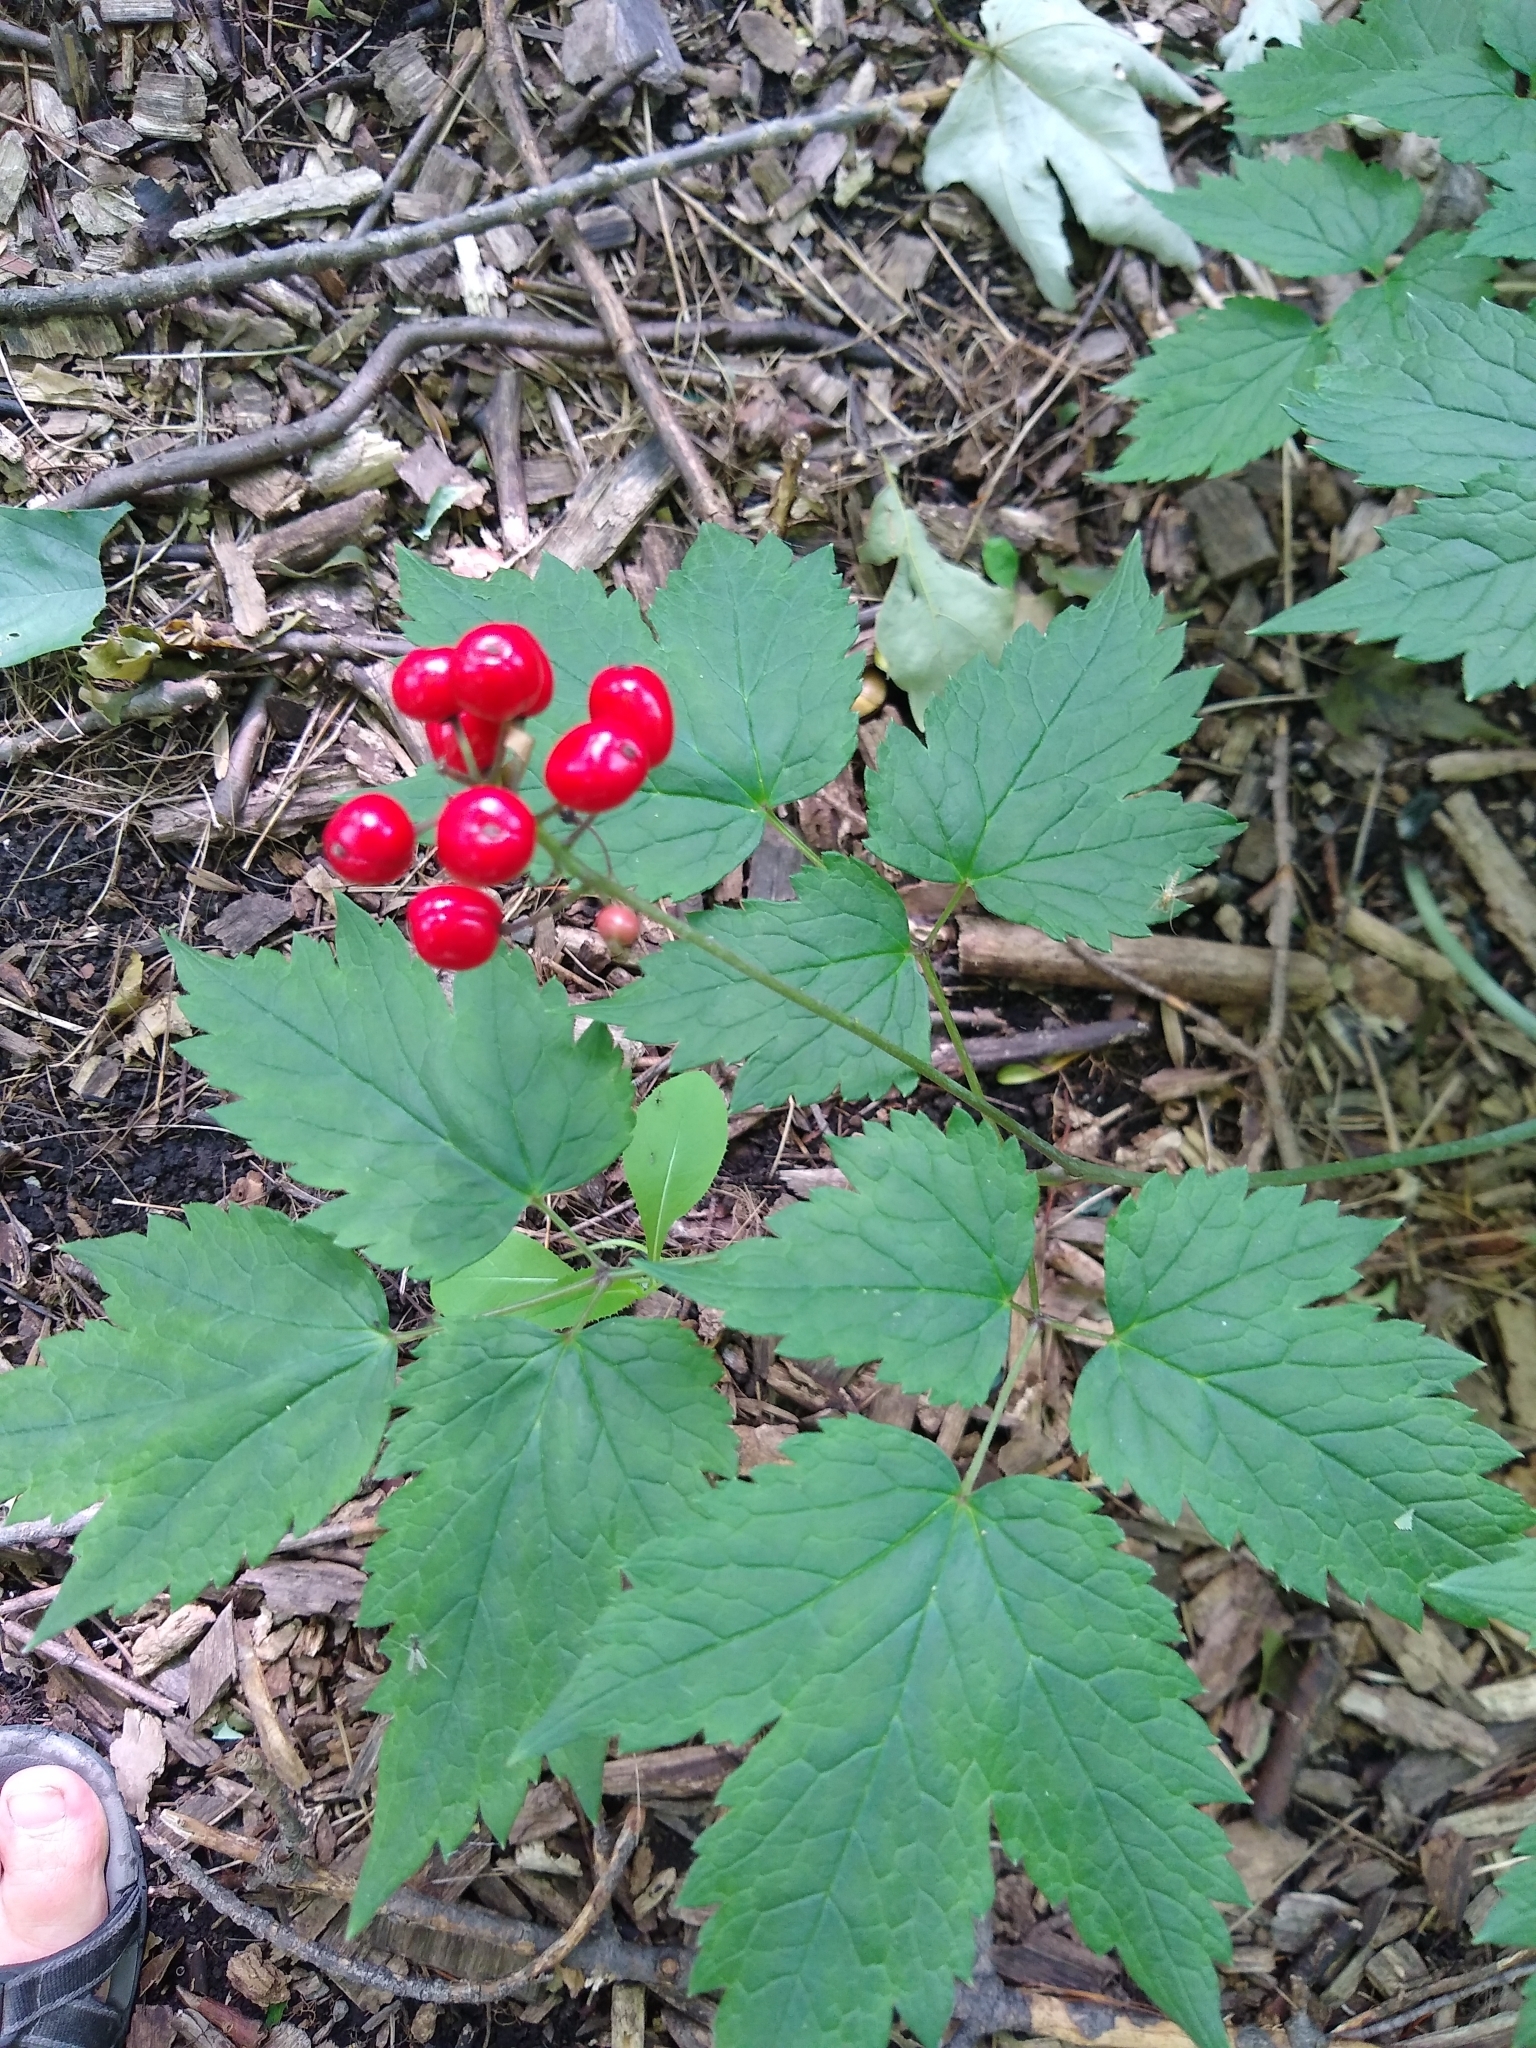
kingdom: Plantae
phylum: Tracheophyta
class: Magnoliopsida
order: Ranunculales
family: Ranunculaceae
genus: Actaea
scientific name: Actaea rubra
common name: Red baneberry
